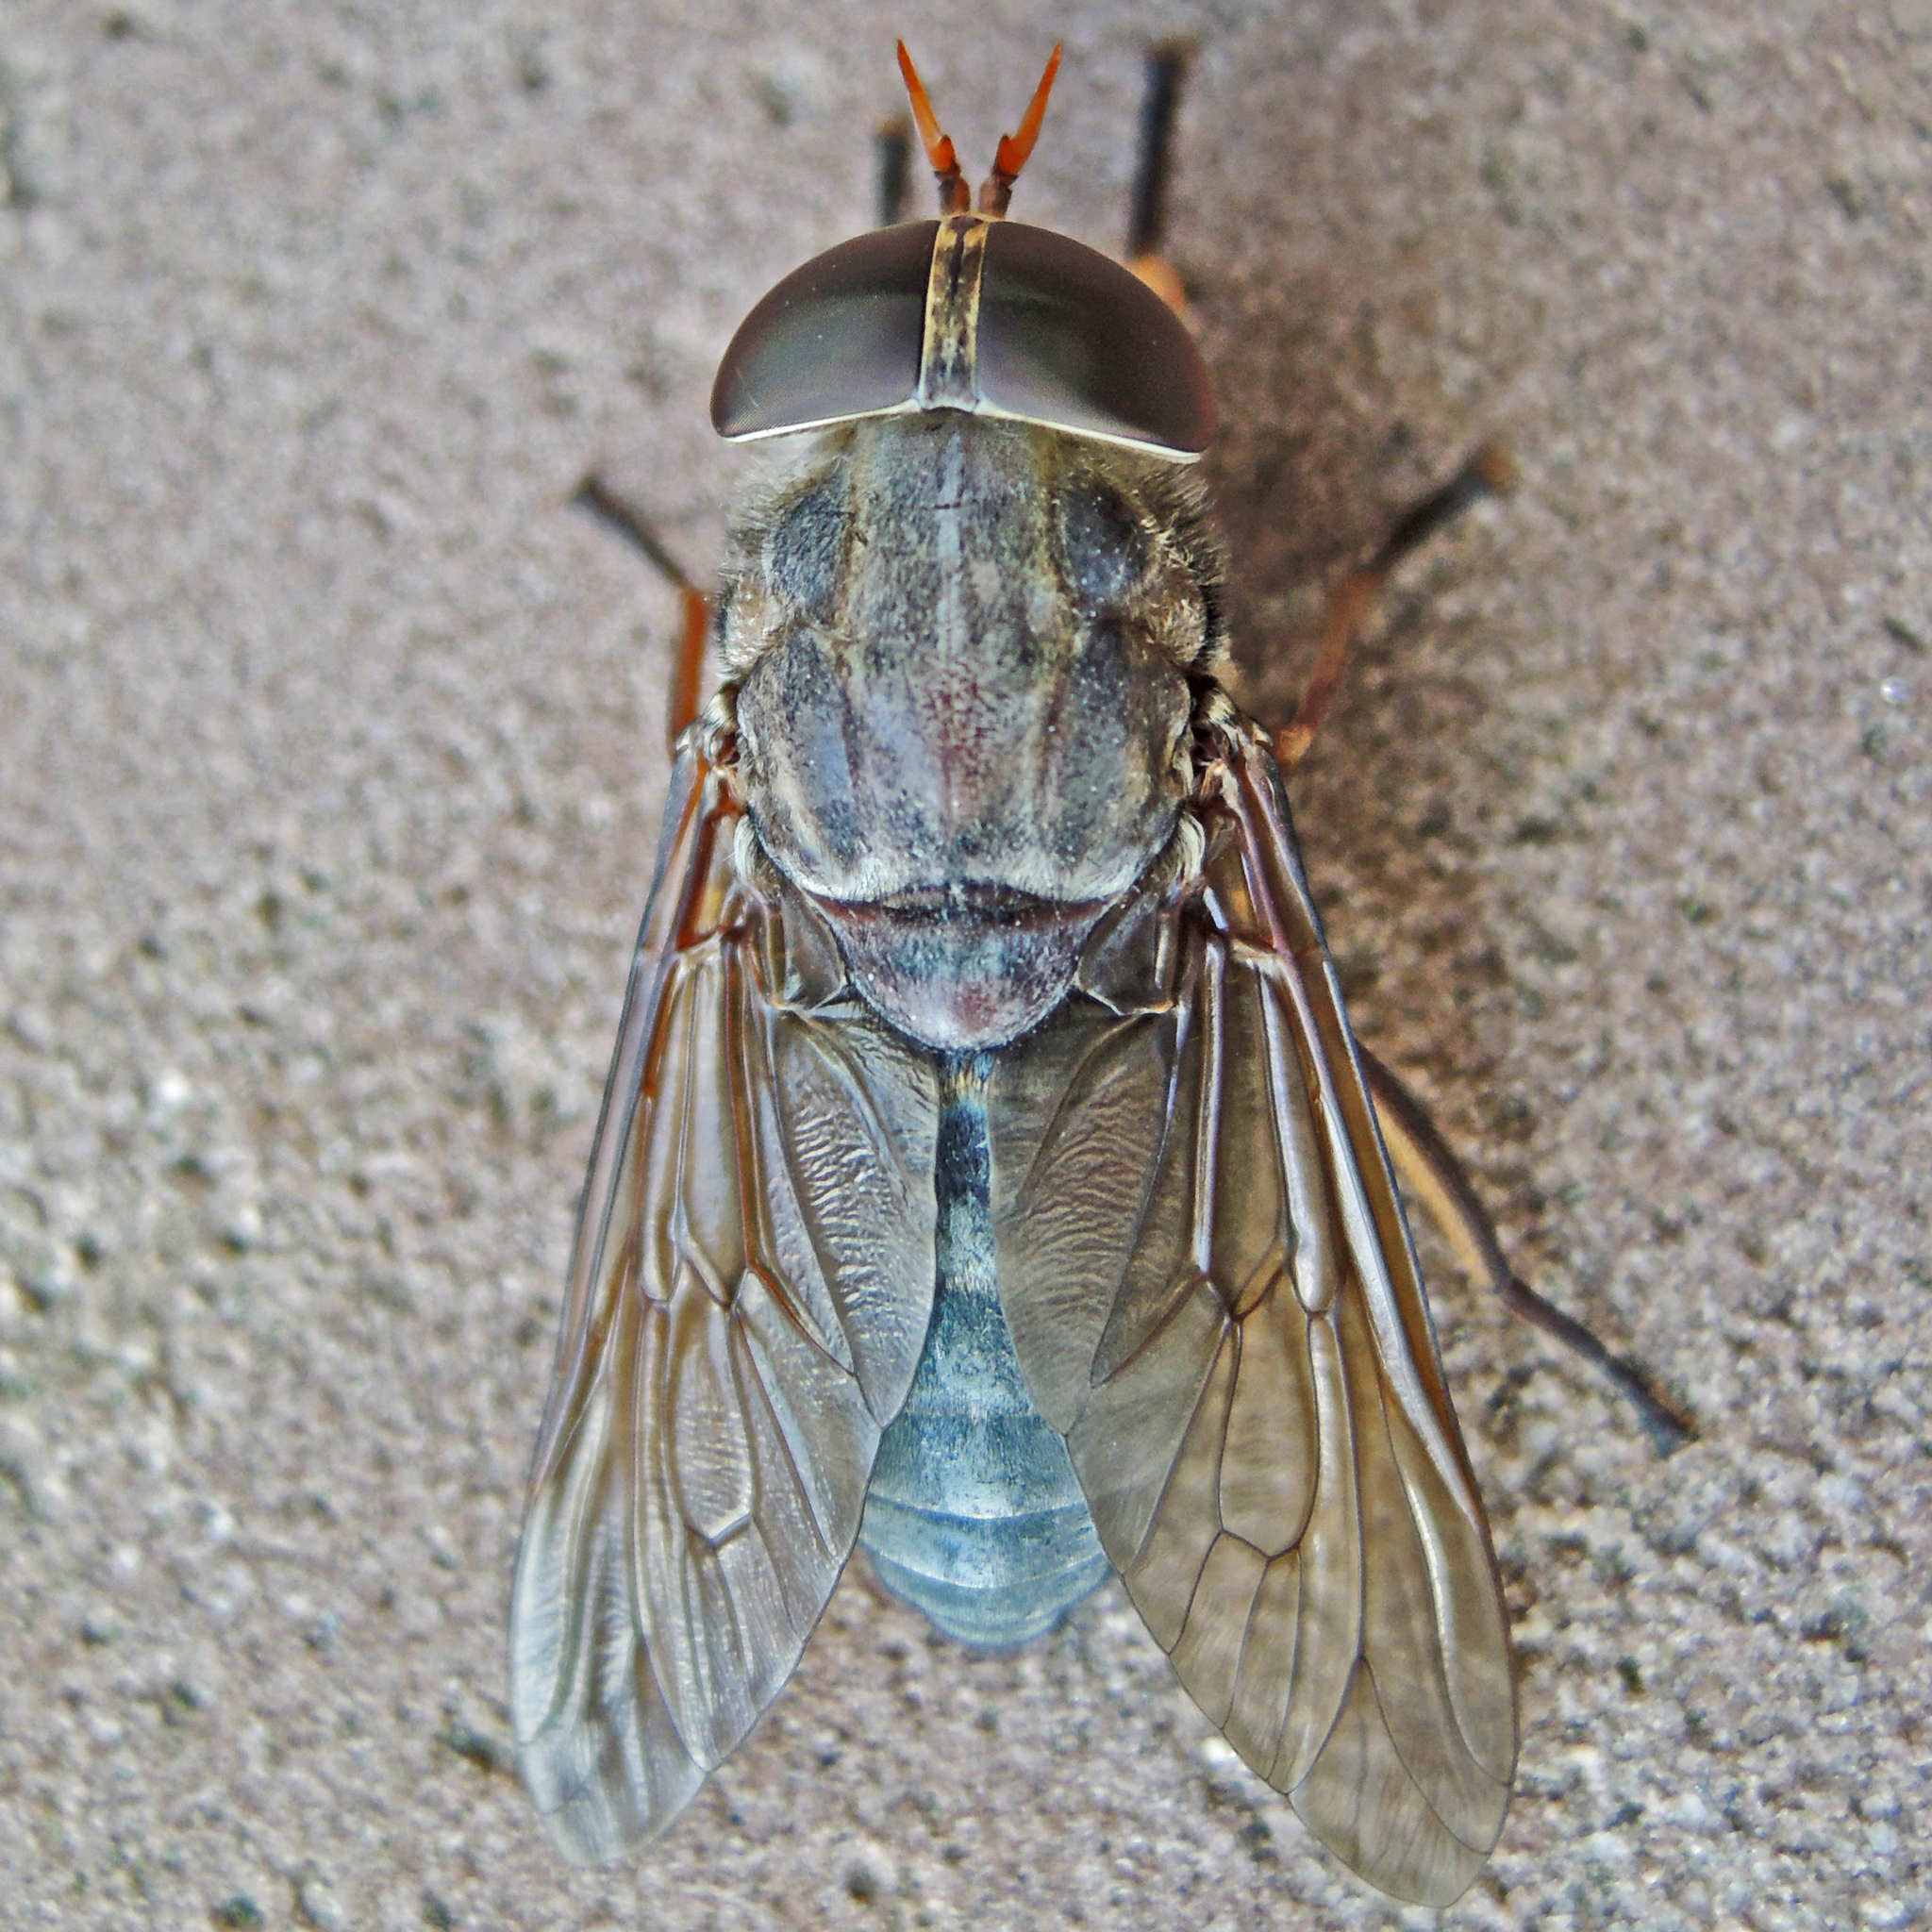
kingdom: Animalia
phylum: Arthropoda
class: Insecta
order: Diptera
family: Tabanidae
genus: Tabanus
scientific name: Tabanus calens
